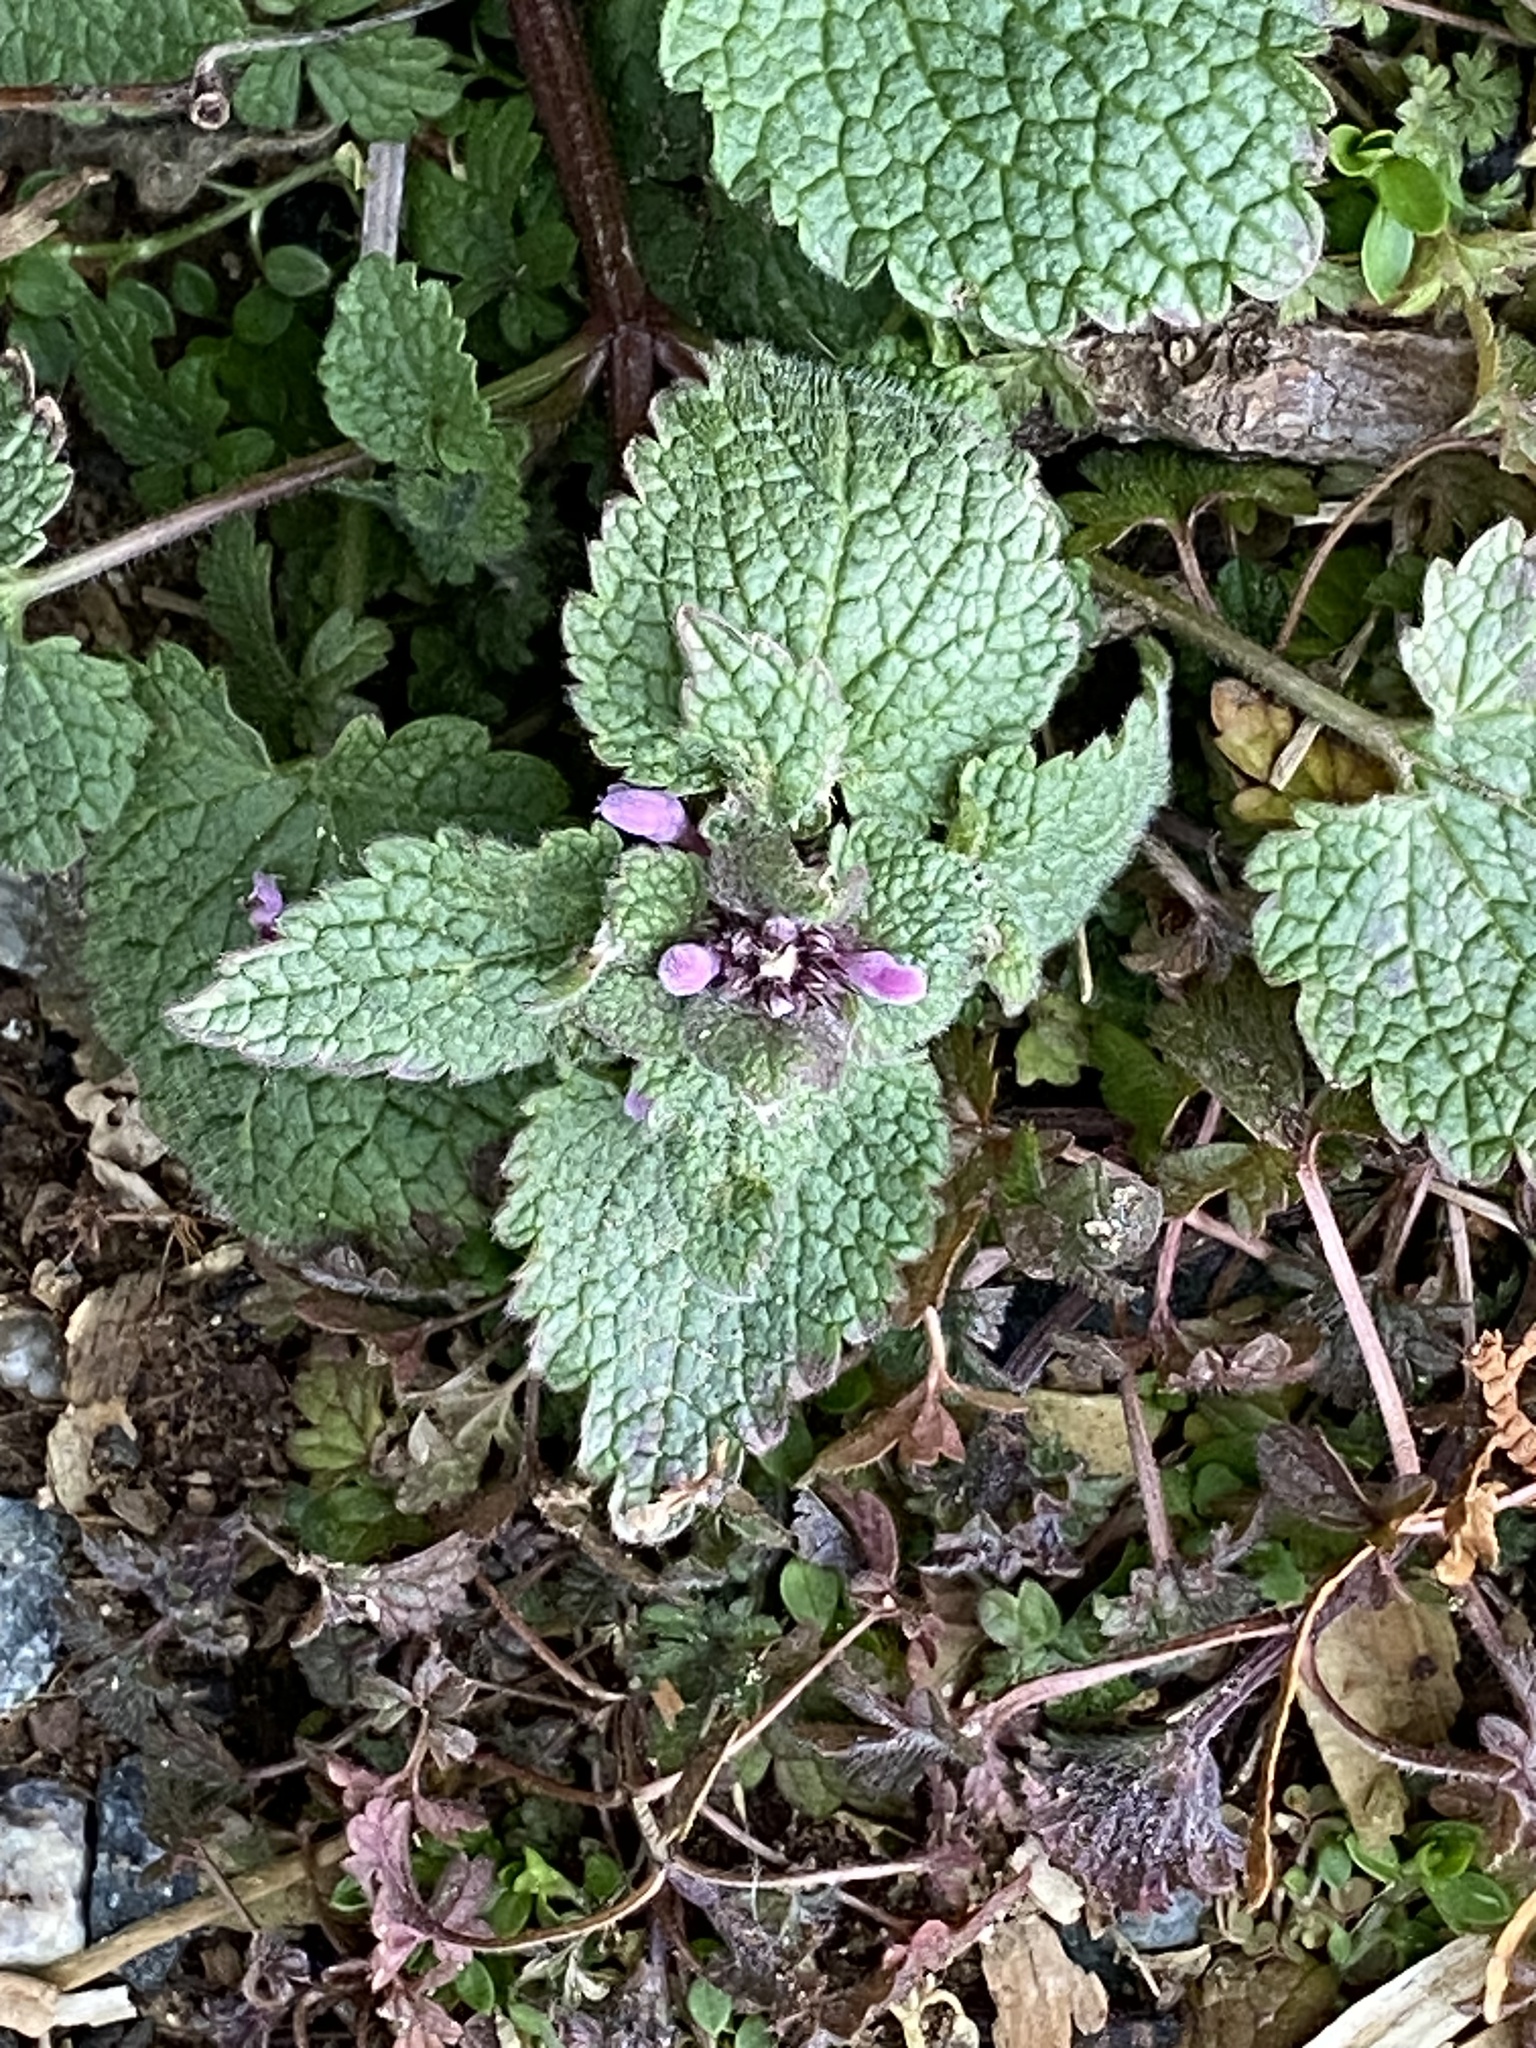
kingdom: Plantae
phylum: Tracheophyta
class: Magnoliopsida
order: Lamiales
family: Lamiaceae
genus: Lamium
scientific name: Lamium purpureum
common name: Red dead-nettle
